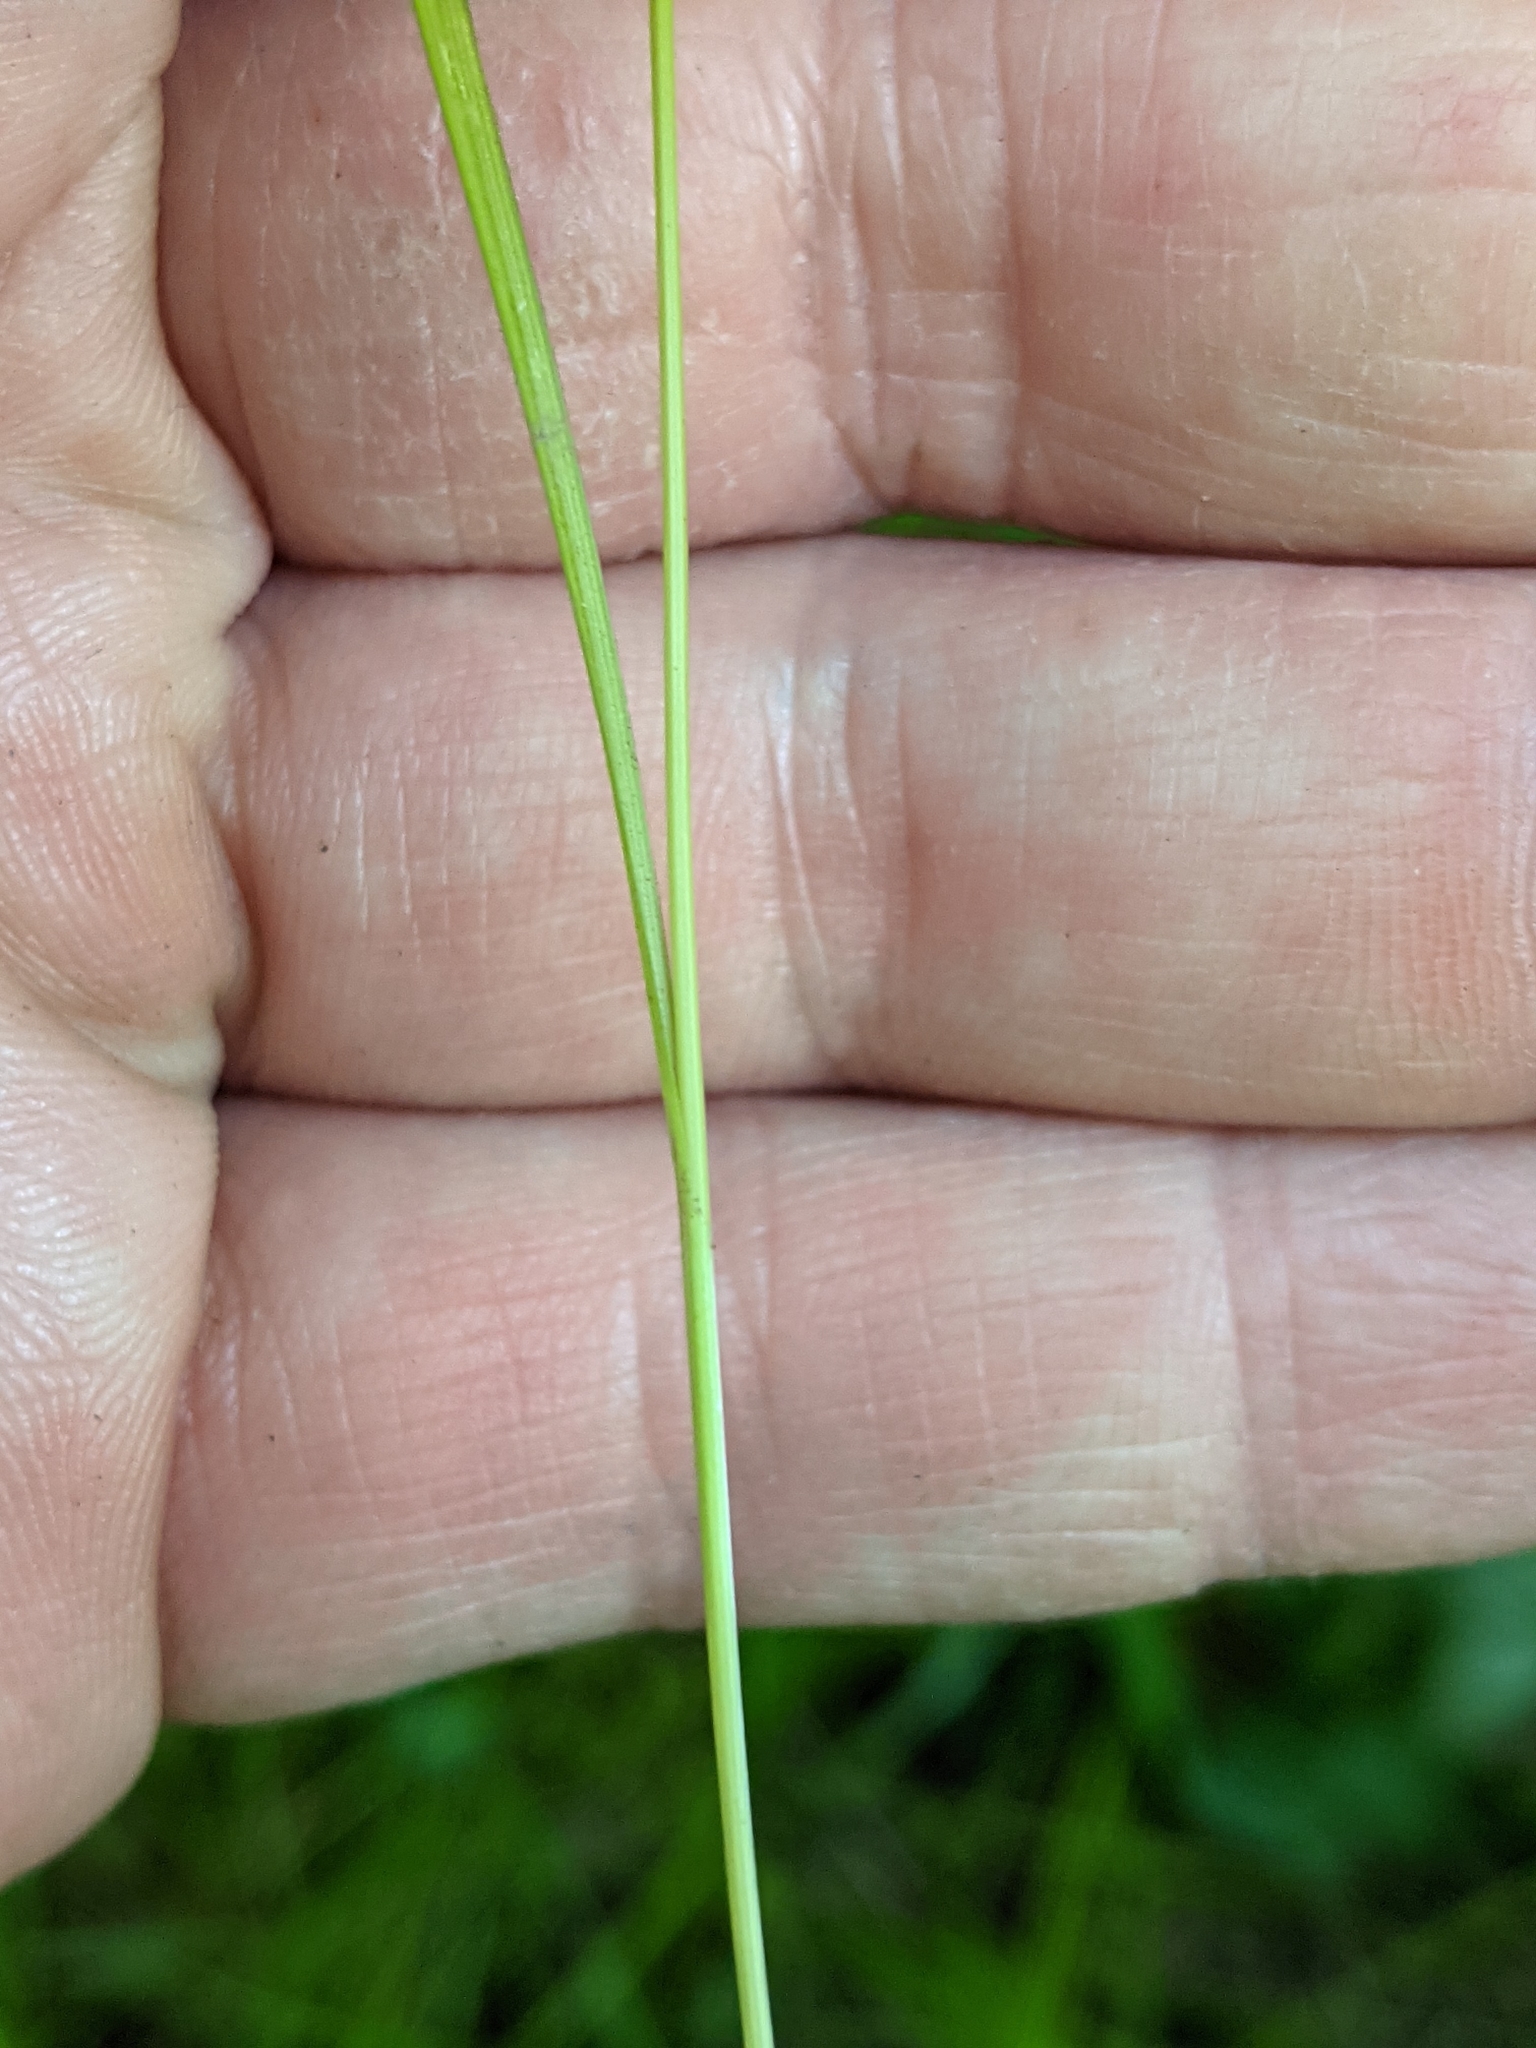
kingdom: Plantae
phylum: Tracheophyta
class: Liliopsida
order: Poales
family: Cyperaceae
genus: Carex
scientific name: Carex radiata
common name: Eastern star sedge
